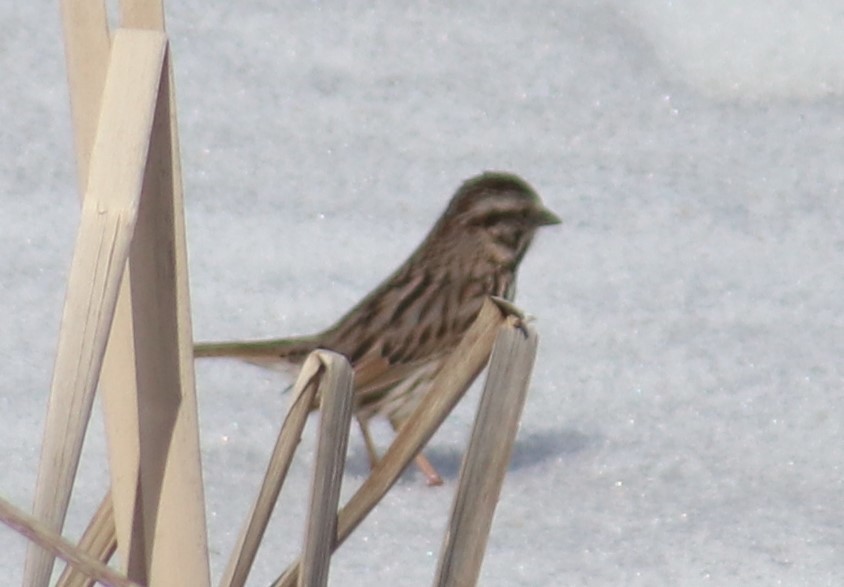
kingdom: Animalia
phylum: Chordata
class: Aves
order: Passeriformes
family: Passerellidae
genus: Melospiza
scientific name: Melospiza melodia
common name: Song sparrow
